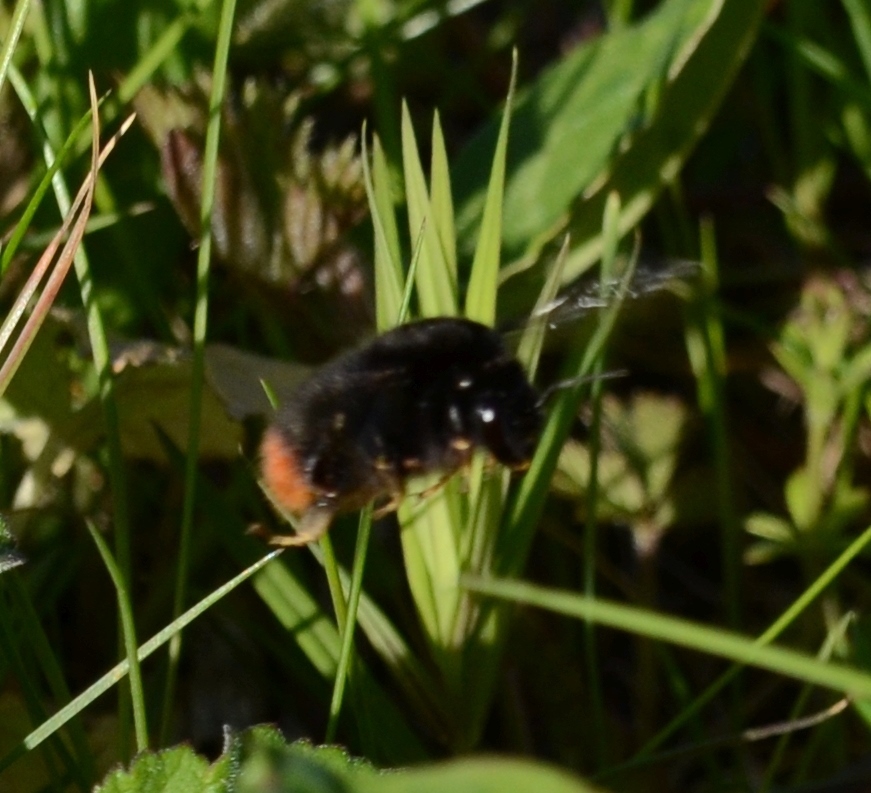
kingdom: Animalia
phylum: Arthropoda
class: Insecta
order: Hymenoptera
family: Apidae
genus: Bombus
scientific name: Bombus lapidarius
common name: Large red-tailed humble-bee
